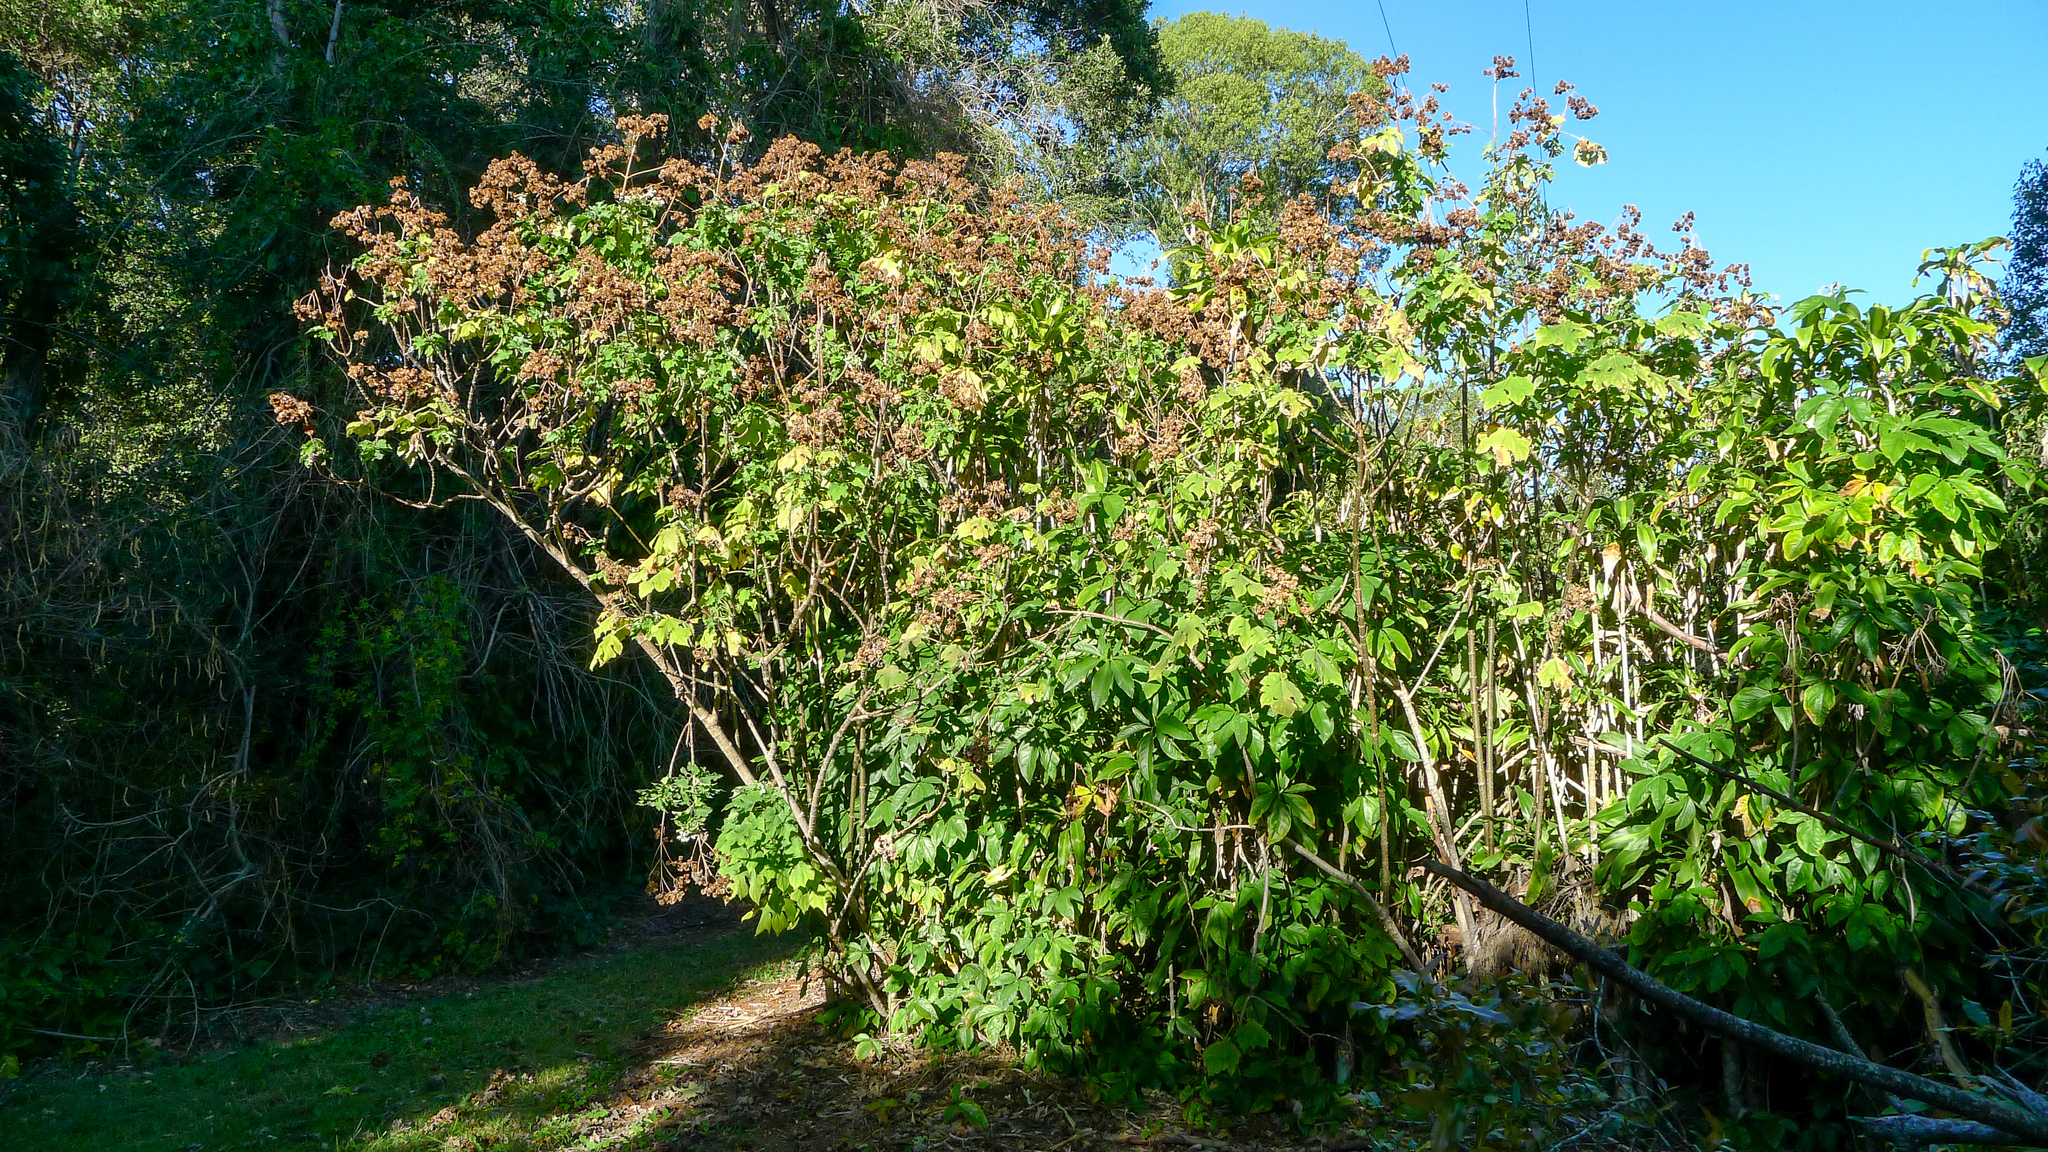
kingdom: Plantae
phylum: Tracheophyta
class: Magnoliopsida
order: Asterales
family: Asteraceae
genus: Montanoa
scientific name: Montanoa hibiscifolia
